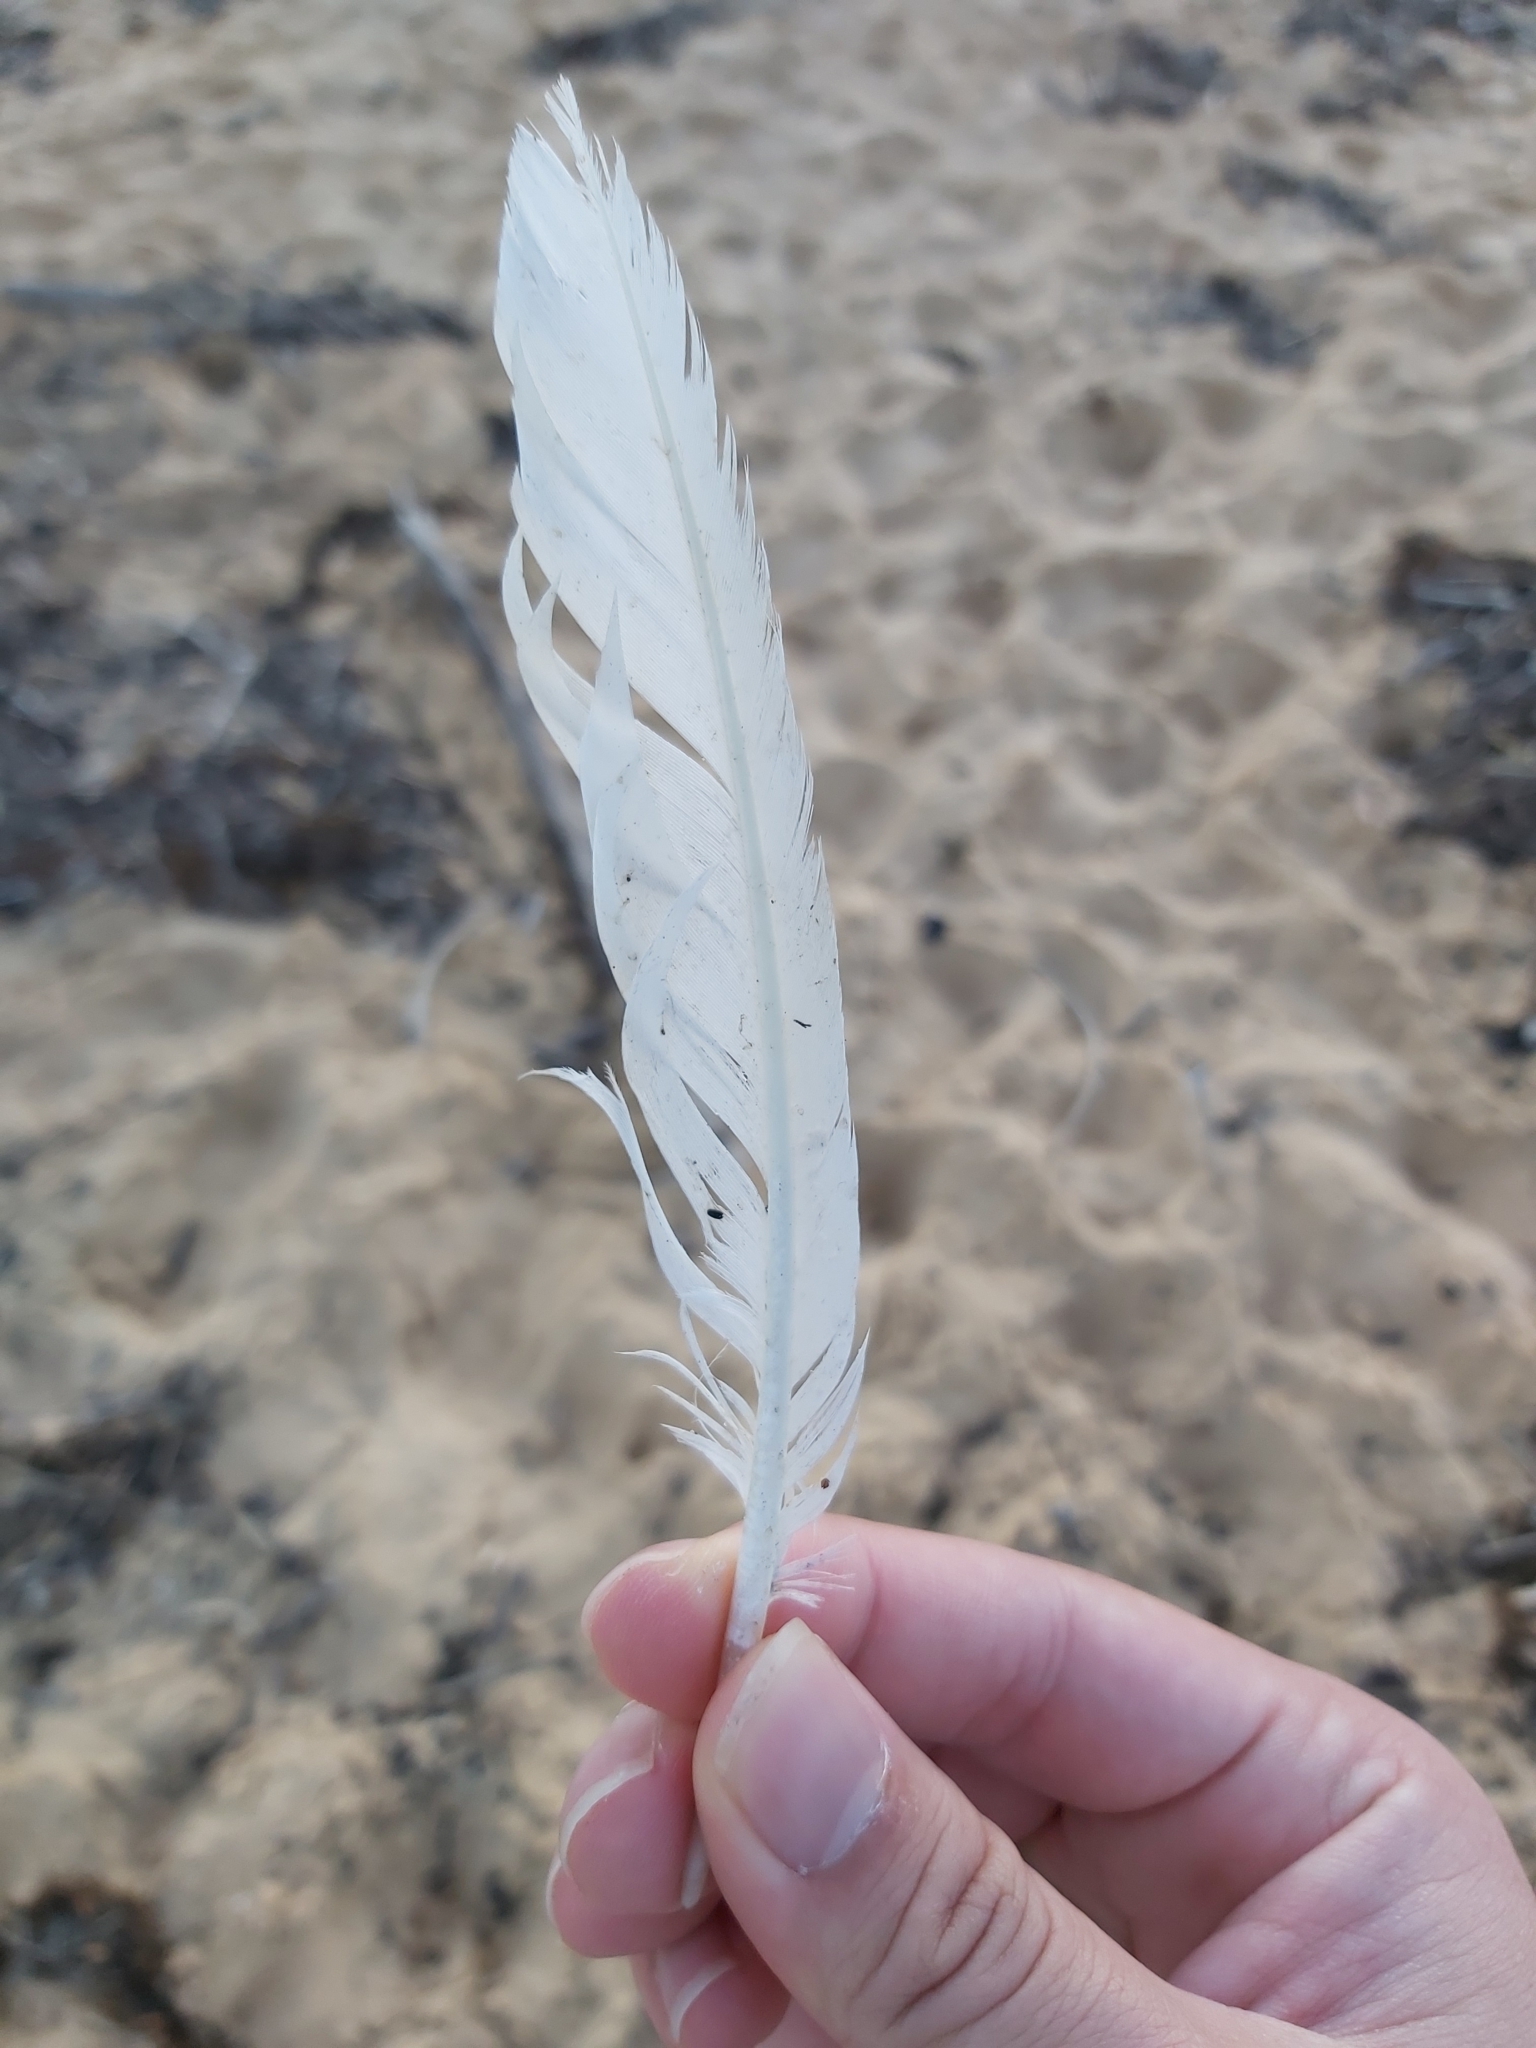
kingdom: Animalia
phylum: Chordata
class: Aves
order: Suliformes
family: Sulidae
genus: Morus
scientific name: Morus serrator
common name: Australasian gannet
